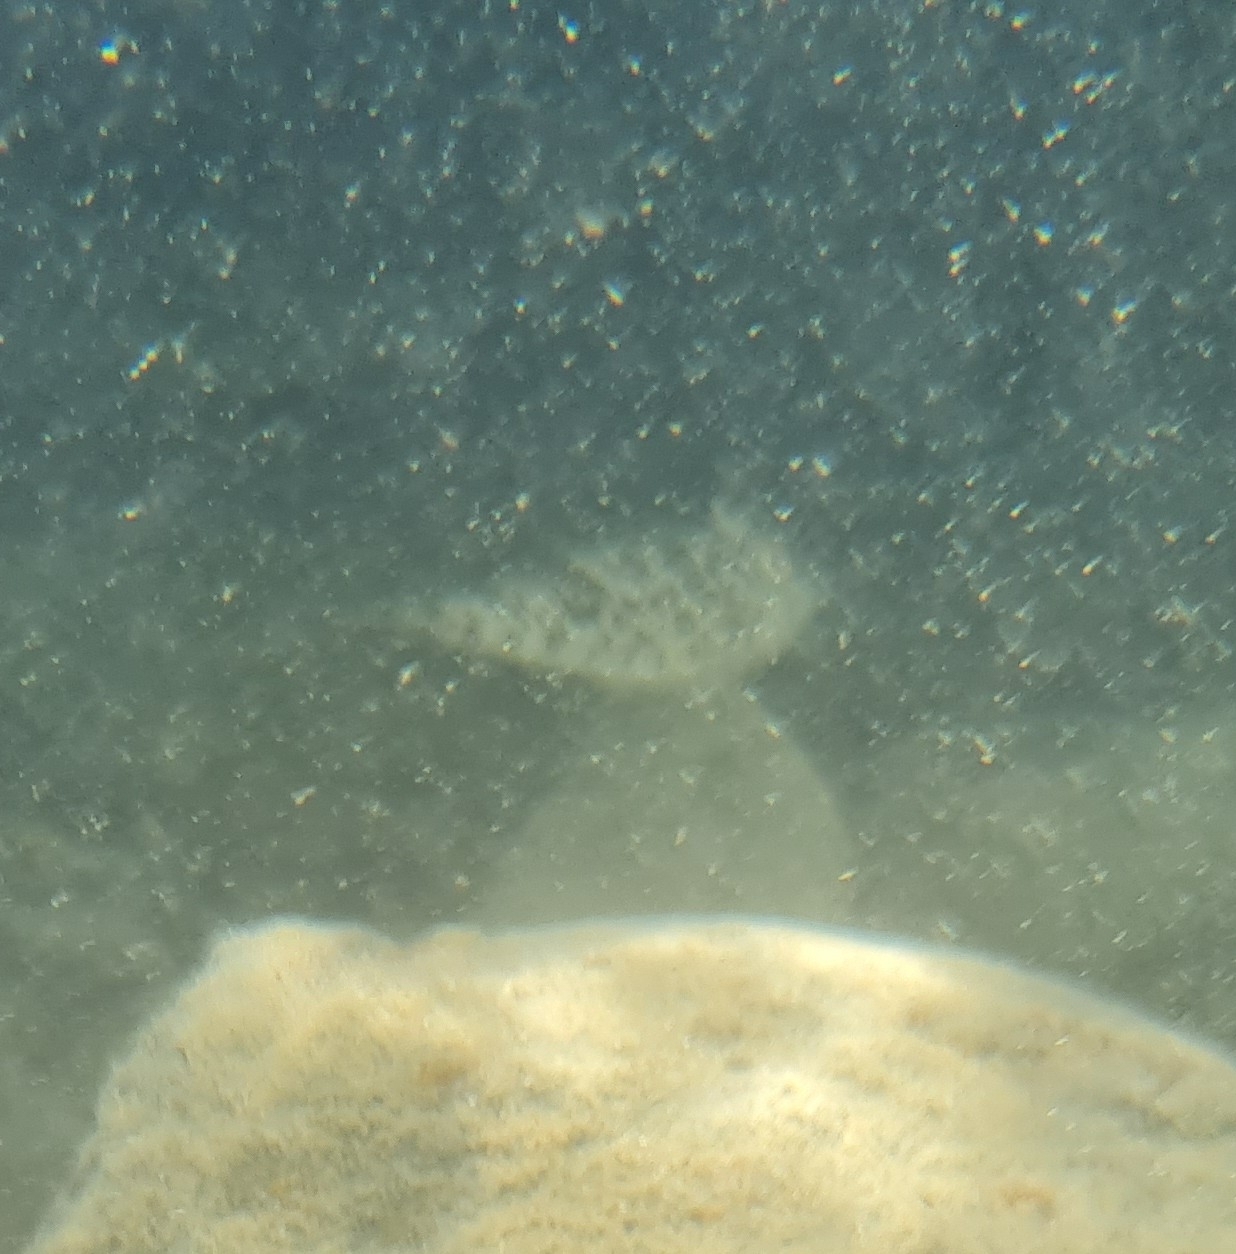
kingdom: Animalia
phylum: Chordata
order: Tetraodontiformes
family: Tetraodontidae
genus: Sphoeroides
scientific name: Sphoeroides greeleyi
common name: Green puffer
